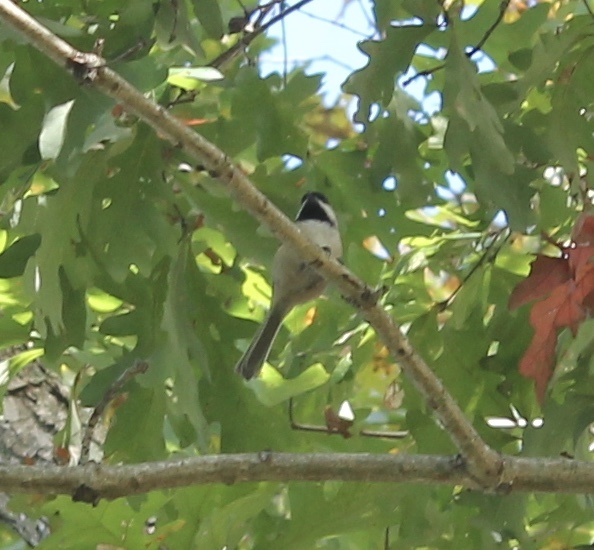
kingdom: Animalia
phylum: Chordata
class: Aves
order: Passeriformes
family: Paridae
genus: Poecile
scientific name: Poecile atricapillus
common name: Black-capped chickadee
